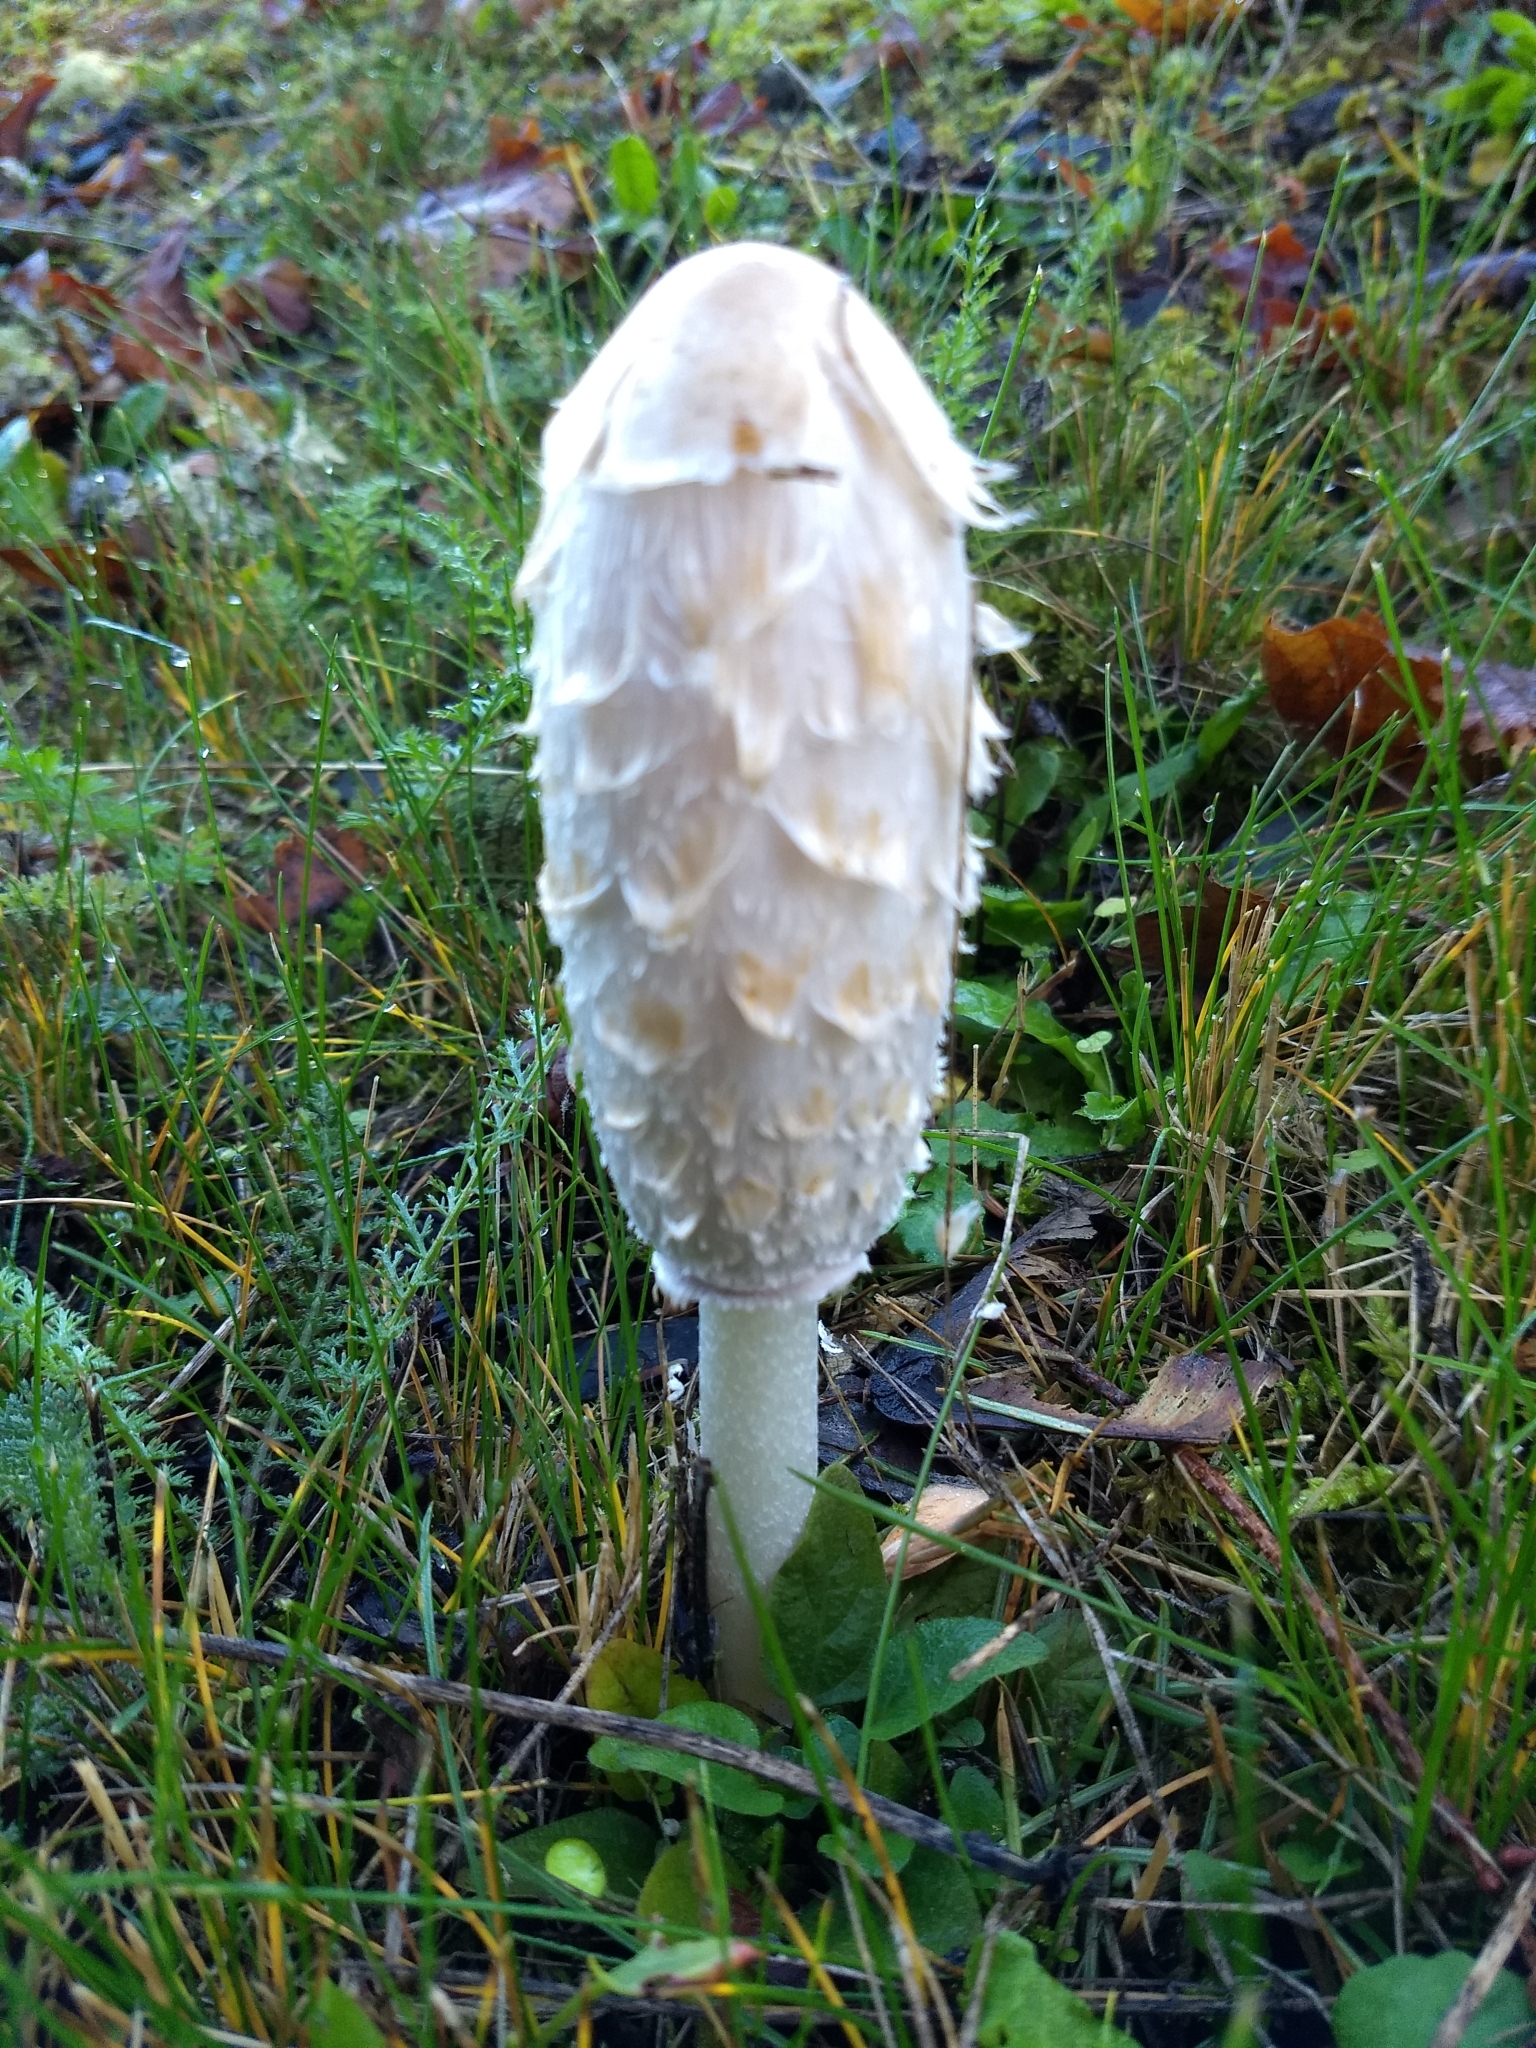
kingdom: Fungi
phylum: Basidiomycota
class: Agaricomycetes
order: Agaricales
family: Agaricaceae
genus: Coprinus
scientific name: Coprinus comatus
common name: Lawyer's wig
